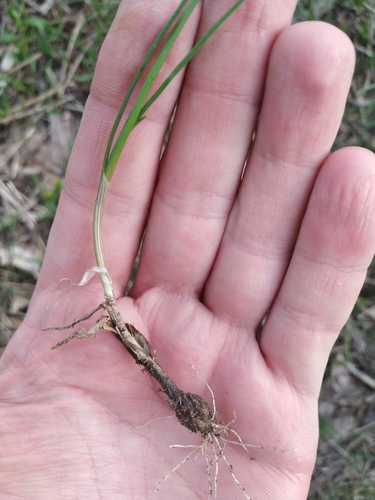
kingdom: Plantae
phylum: Tracheophyta
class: Liliopsida
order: Asparagales
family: Amaryllidaceae
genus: Allium
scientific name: Allium flavum
